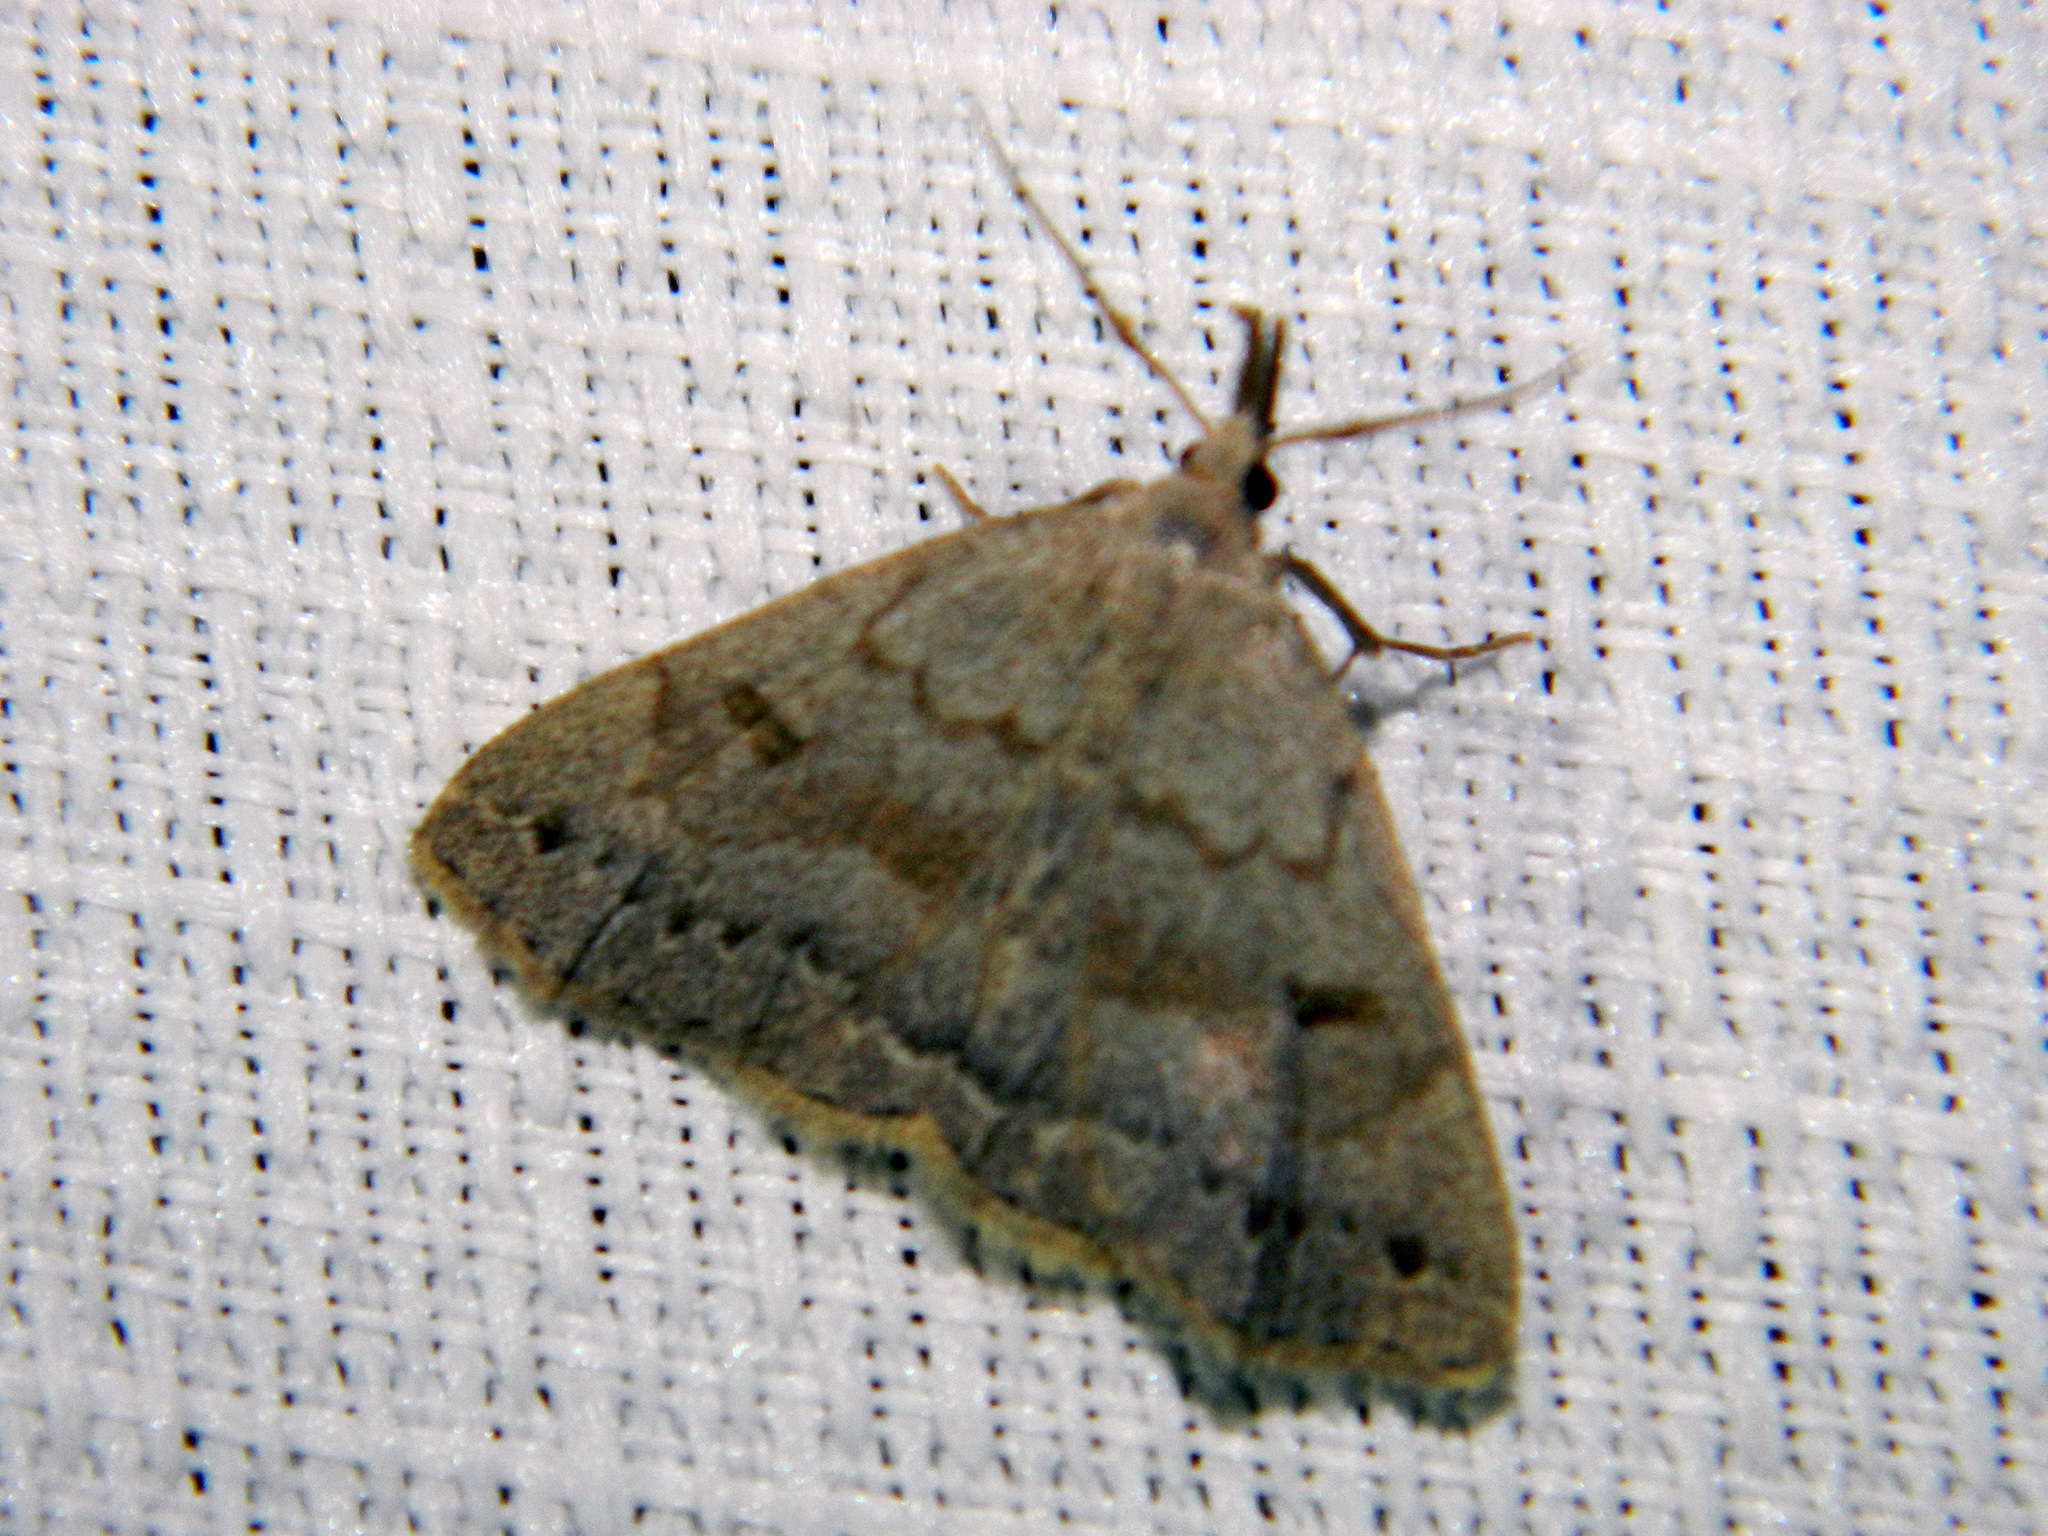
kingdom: Animalia
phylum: Arthropoda
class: Insecta
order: Lepidoptera
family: Erebidae
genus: Macrochilo
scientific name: Macrochilo morbidalis
